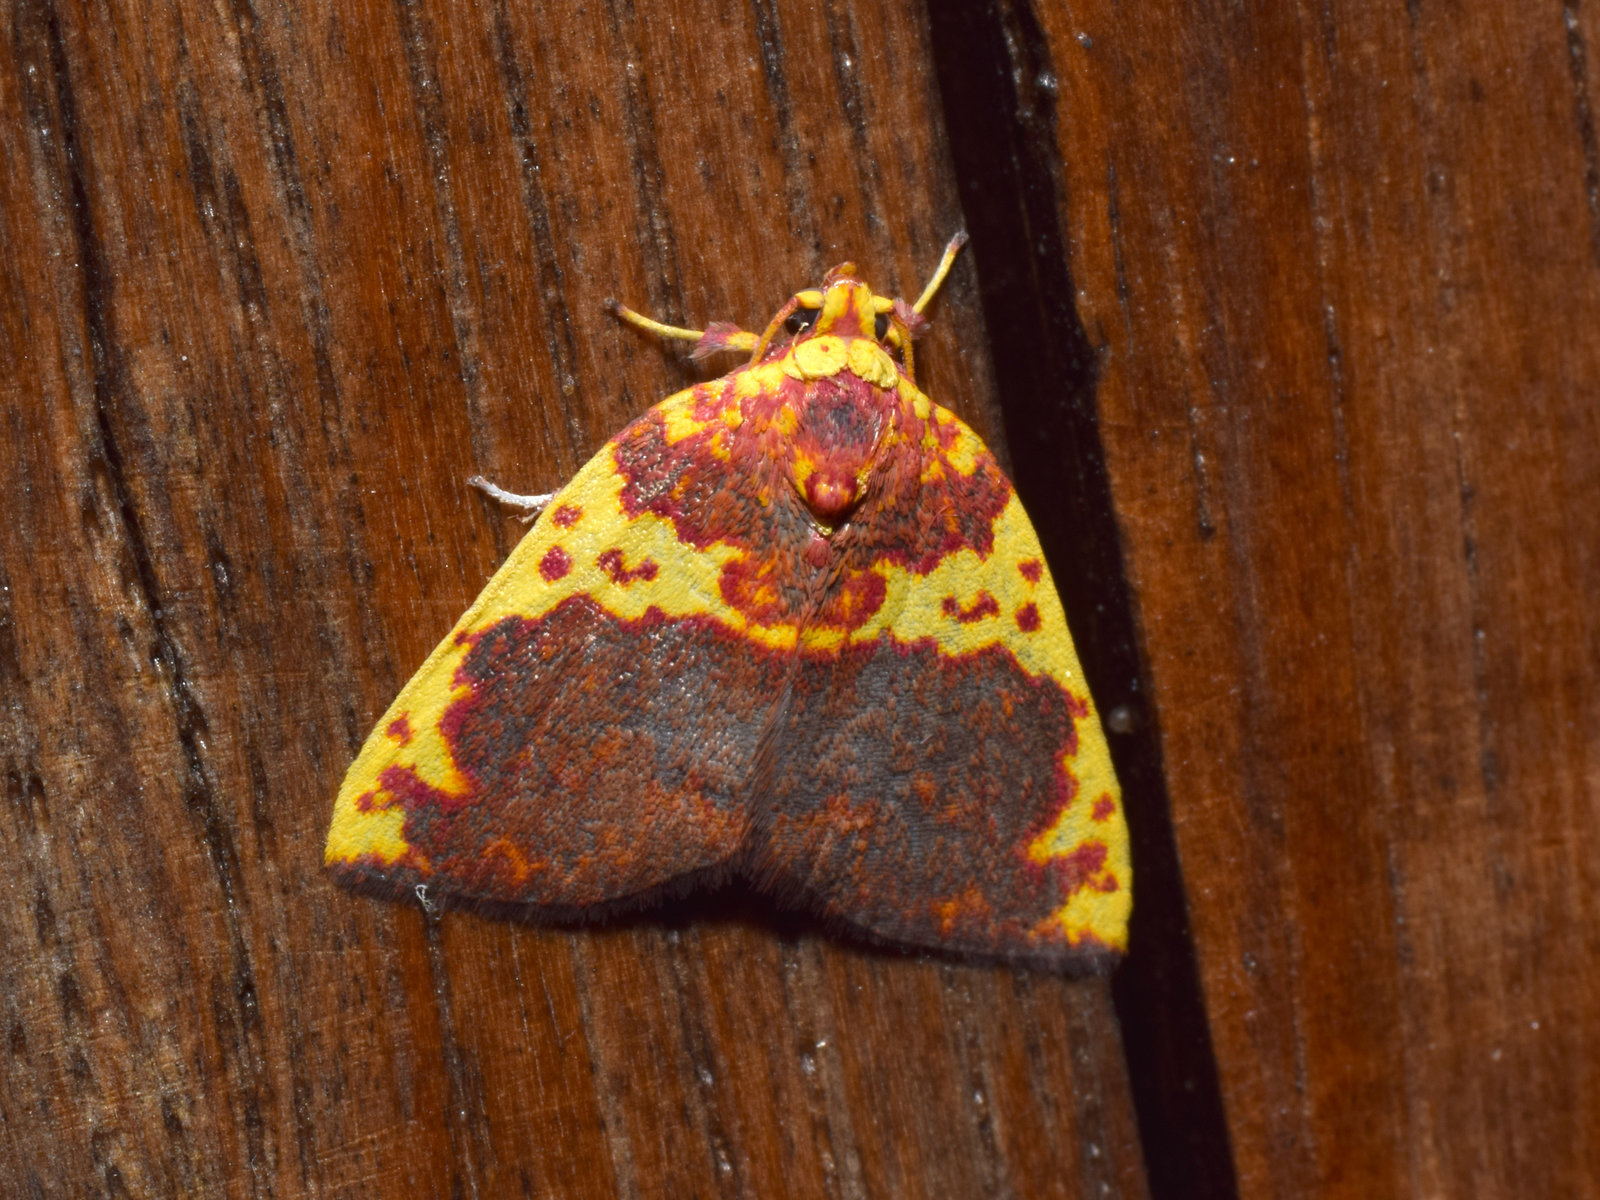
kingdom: Animalia
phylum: Arthropoda
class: Insecta
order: Lepidoptera
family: Nolidae
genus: Siglophora
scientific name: Siglophora sanguinolenta
